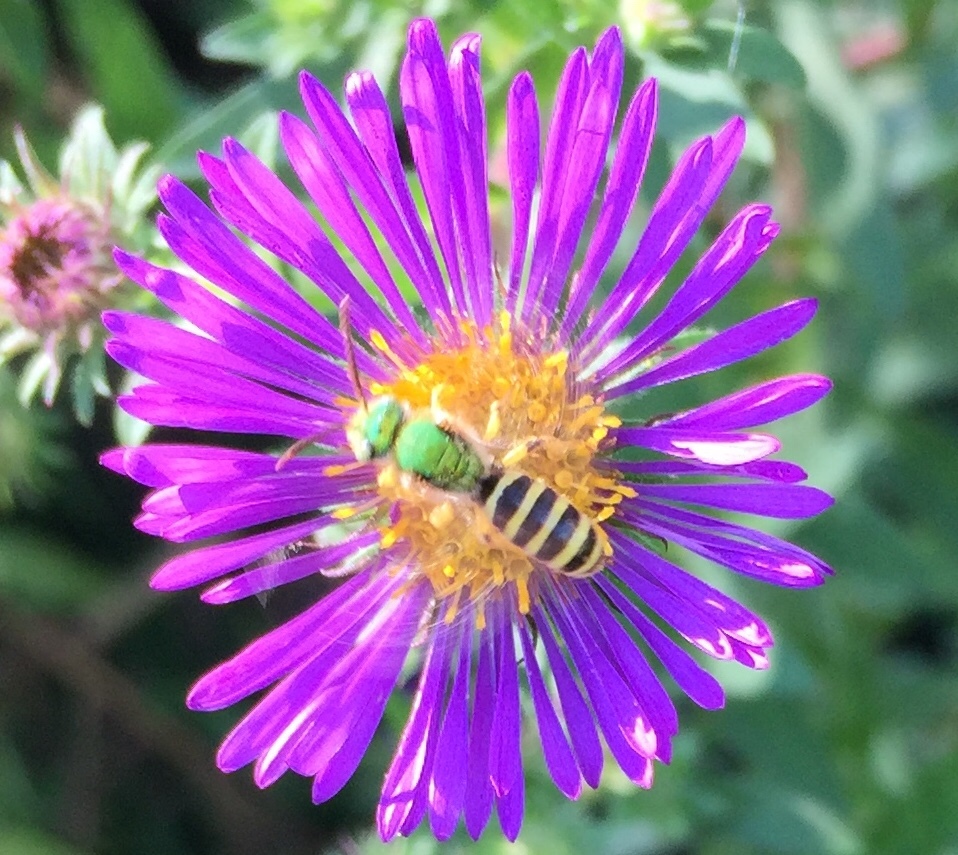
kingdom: Animalia
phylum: Arthropoda
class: Insecta
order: Hymenoptera
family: Halictidae
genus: Agapostemon
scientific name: Agapostemon virescens
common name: Bicolored striped sweat bee
